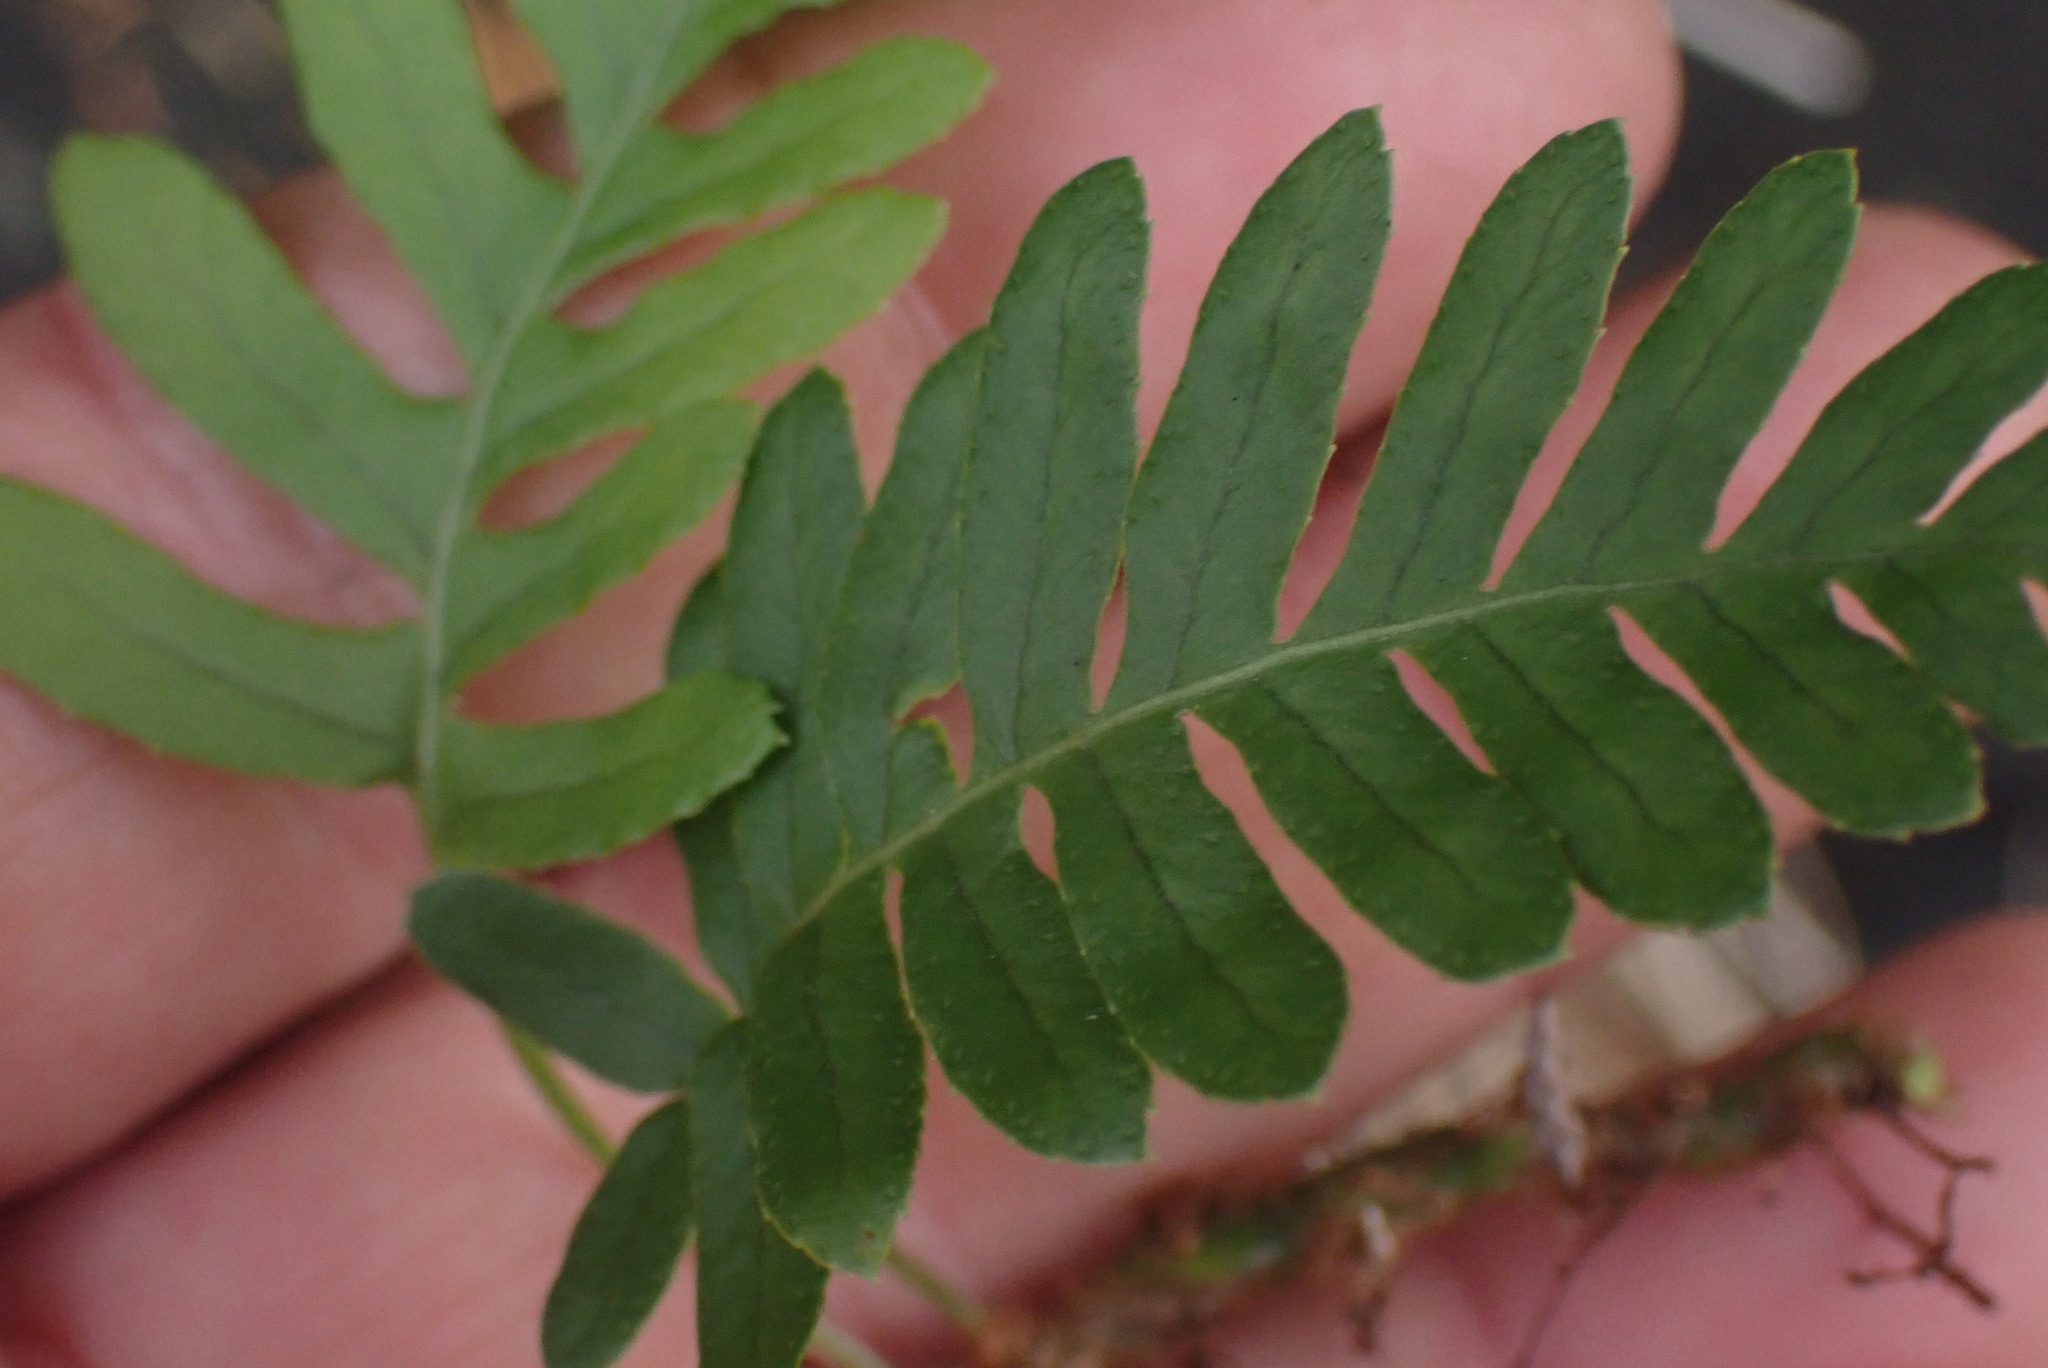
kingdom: Plantae
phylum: Tracheophyta
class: Polypodiopsida
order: Polypodiales
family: Polypodiaceae
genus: Polypodium
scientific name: Polypodium glycyrrhiza
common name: Licorice fern
